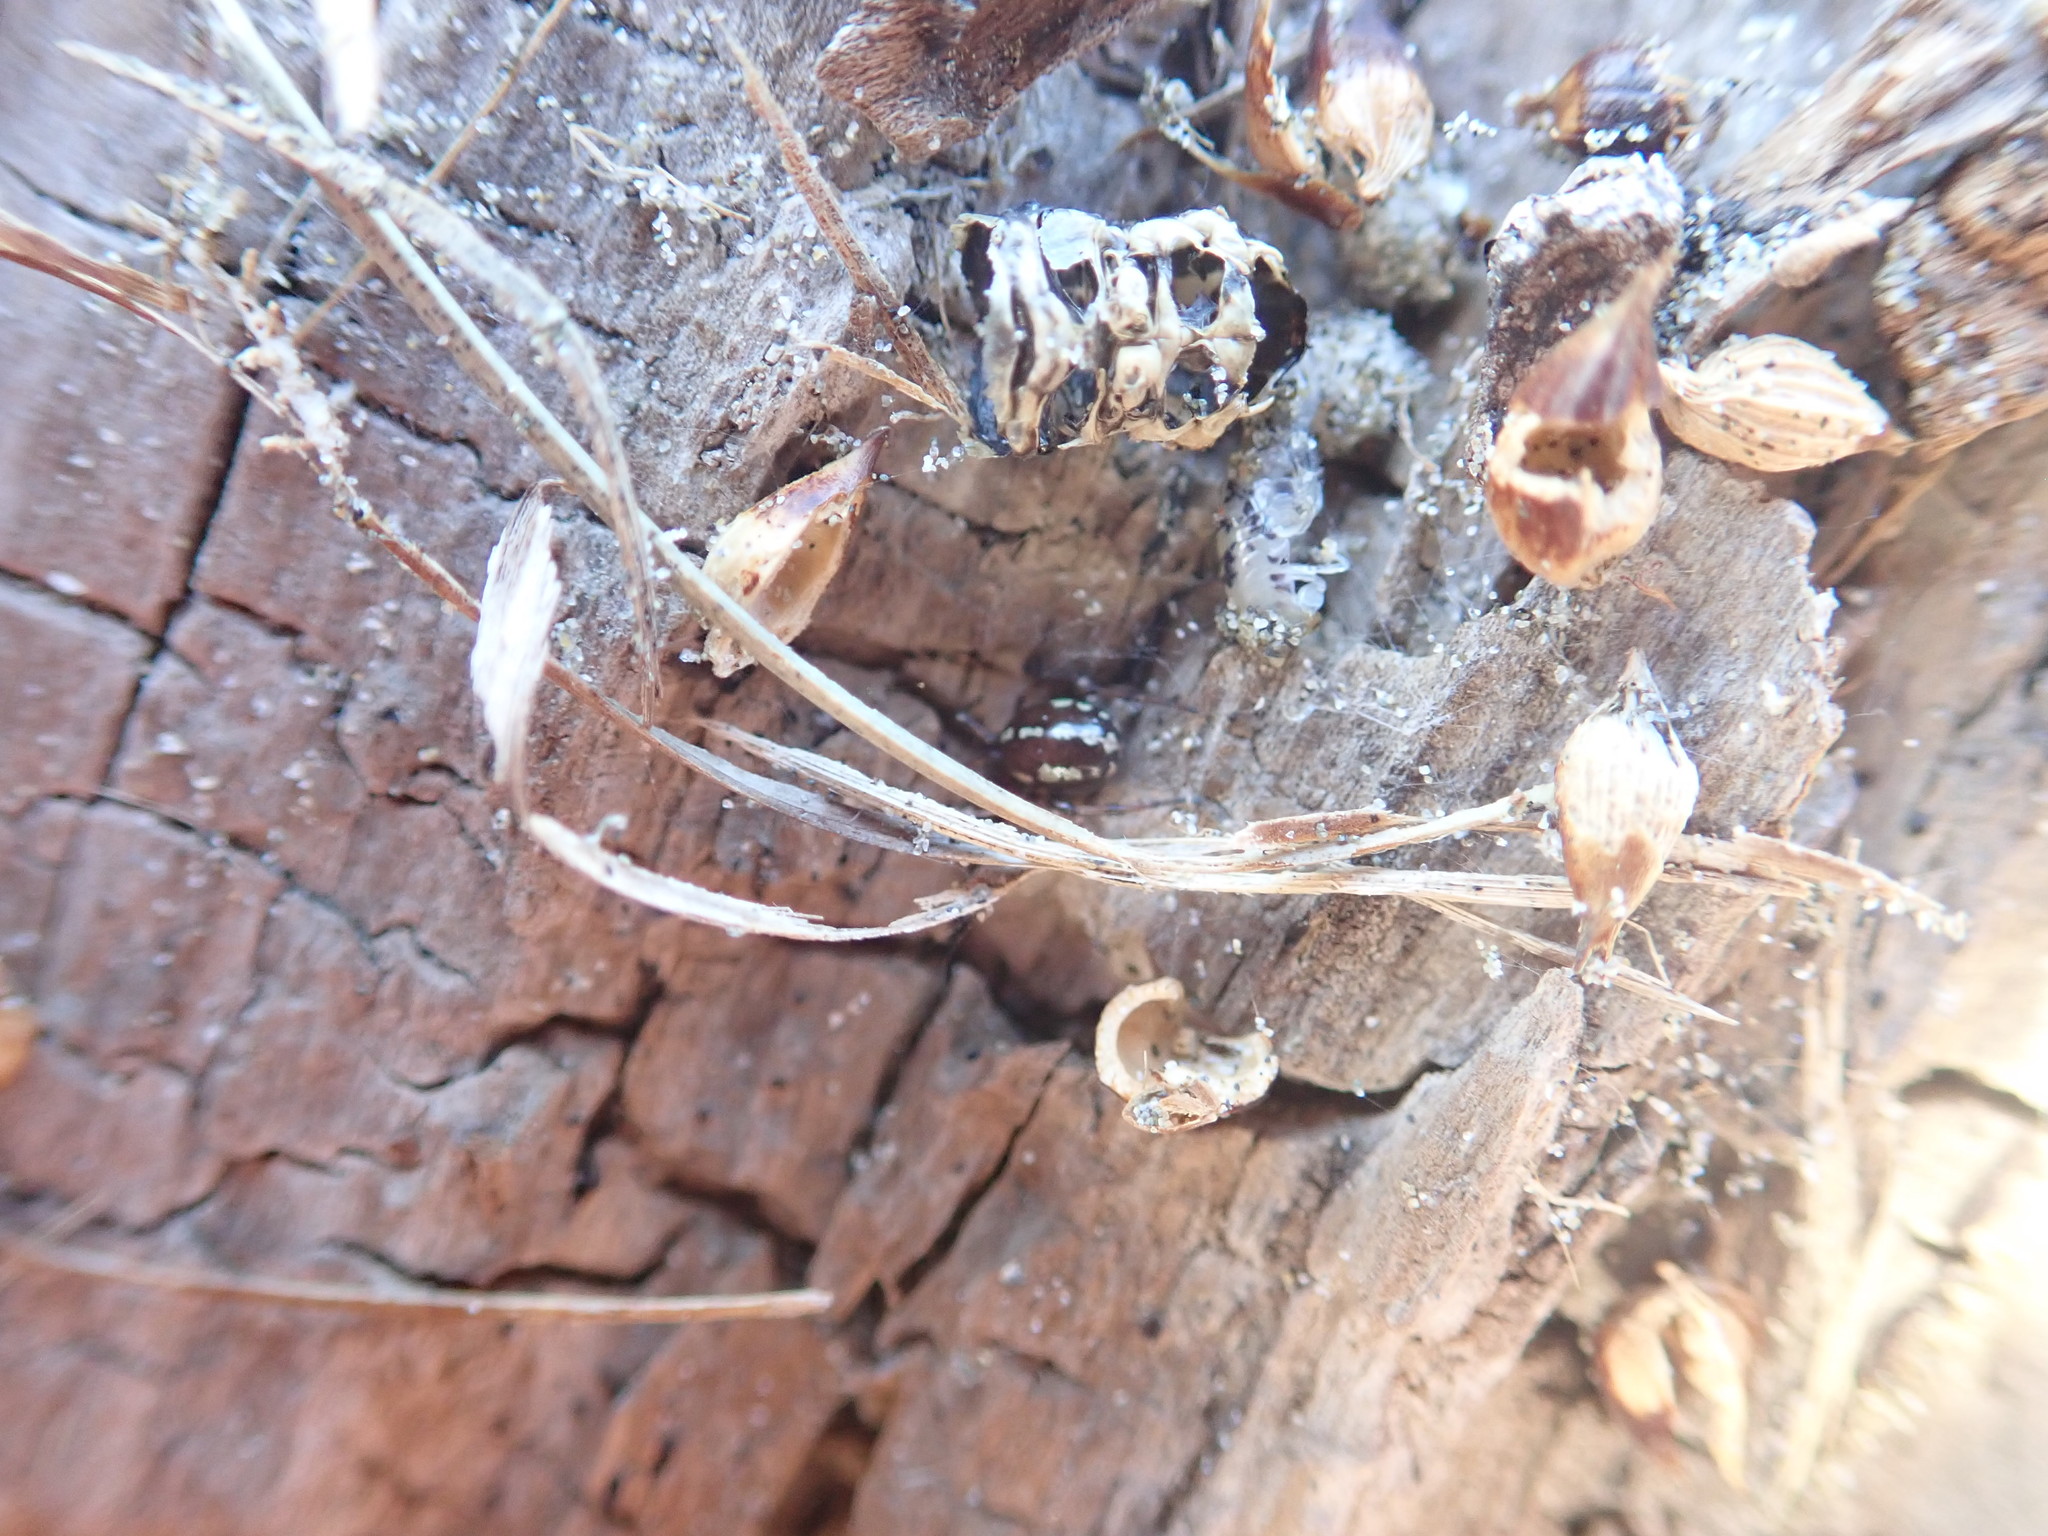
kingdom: Animalia
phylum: Arthropoda
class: Arachnida
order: Araneae
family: Theridiidae
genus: Steatoda
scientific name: Steatoda lepida
